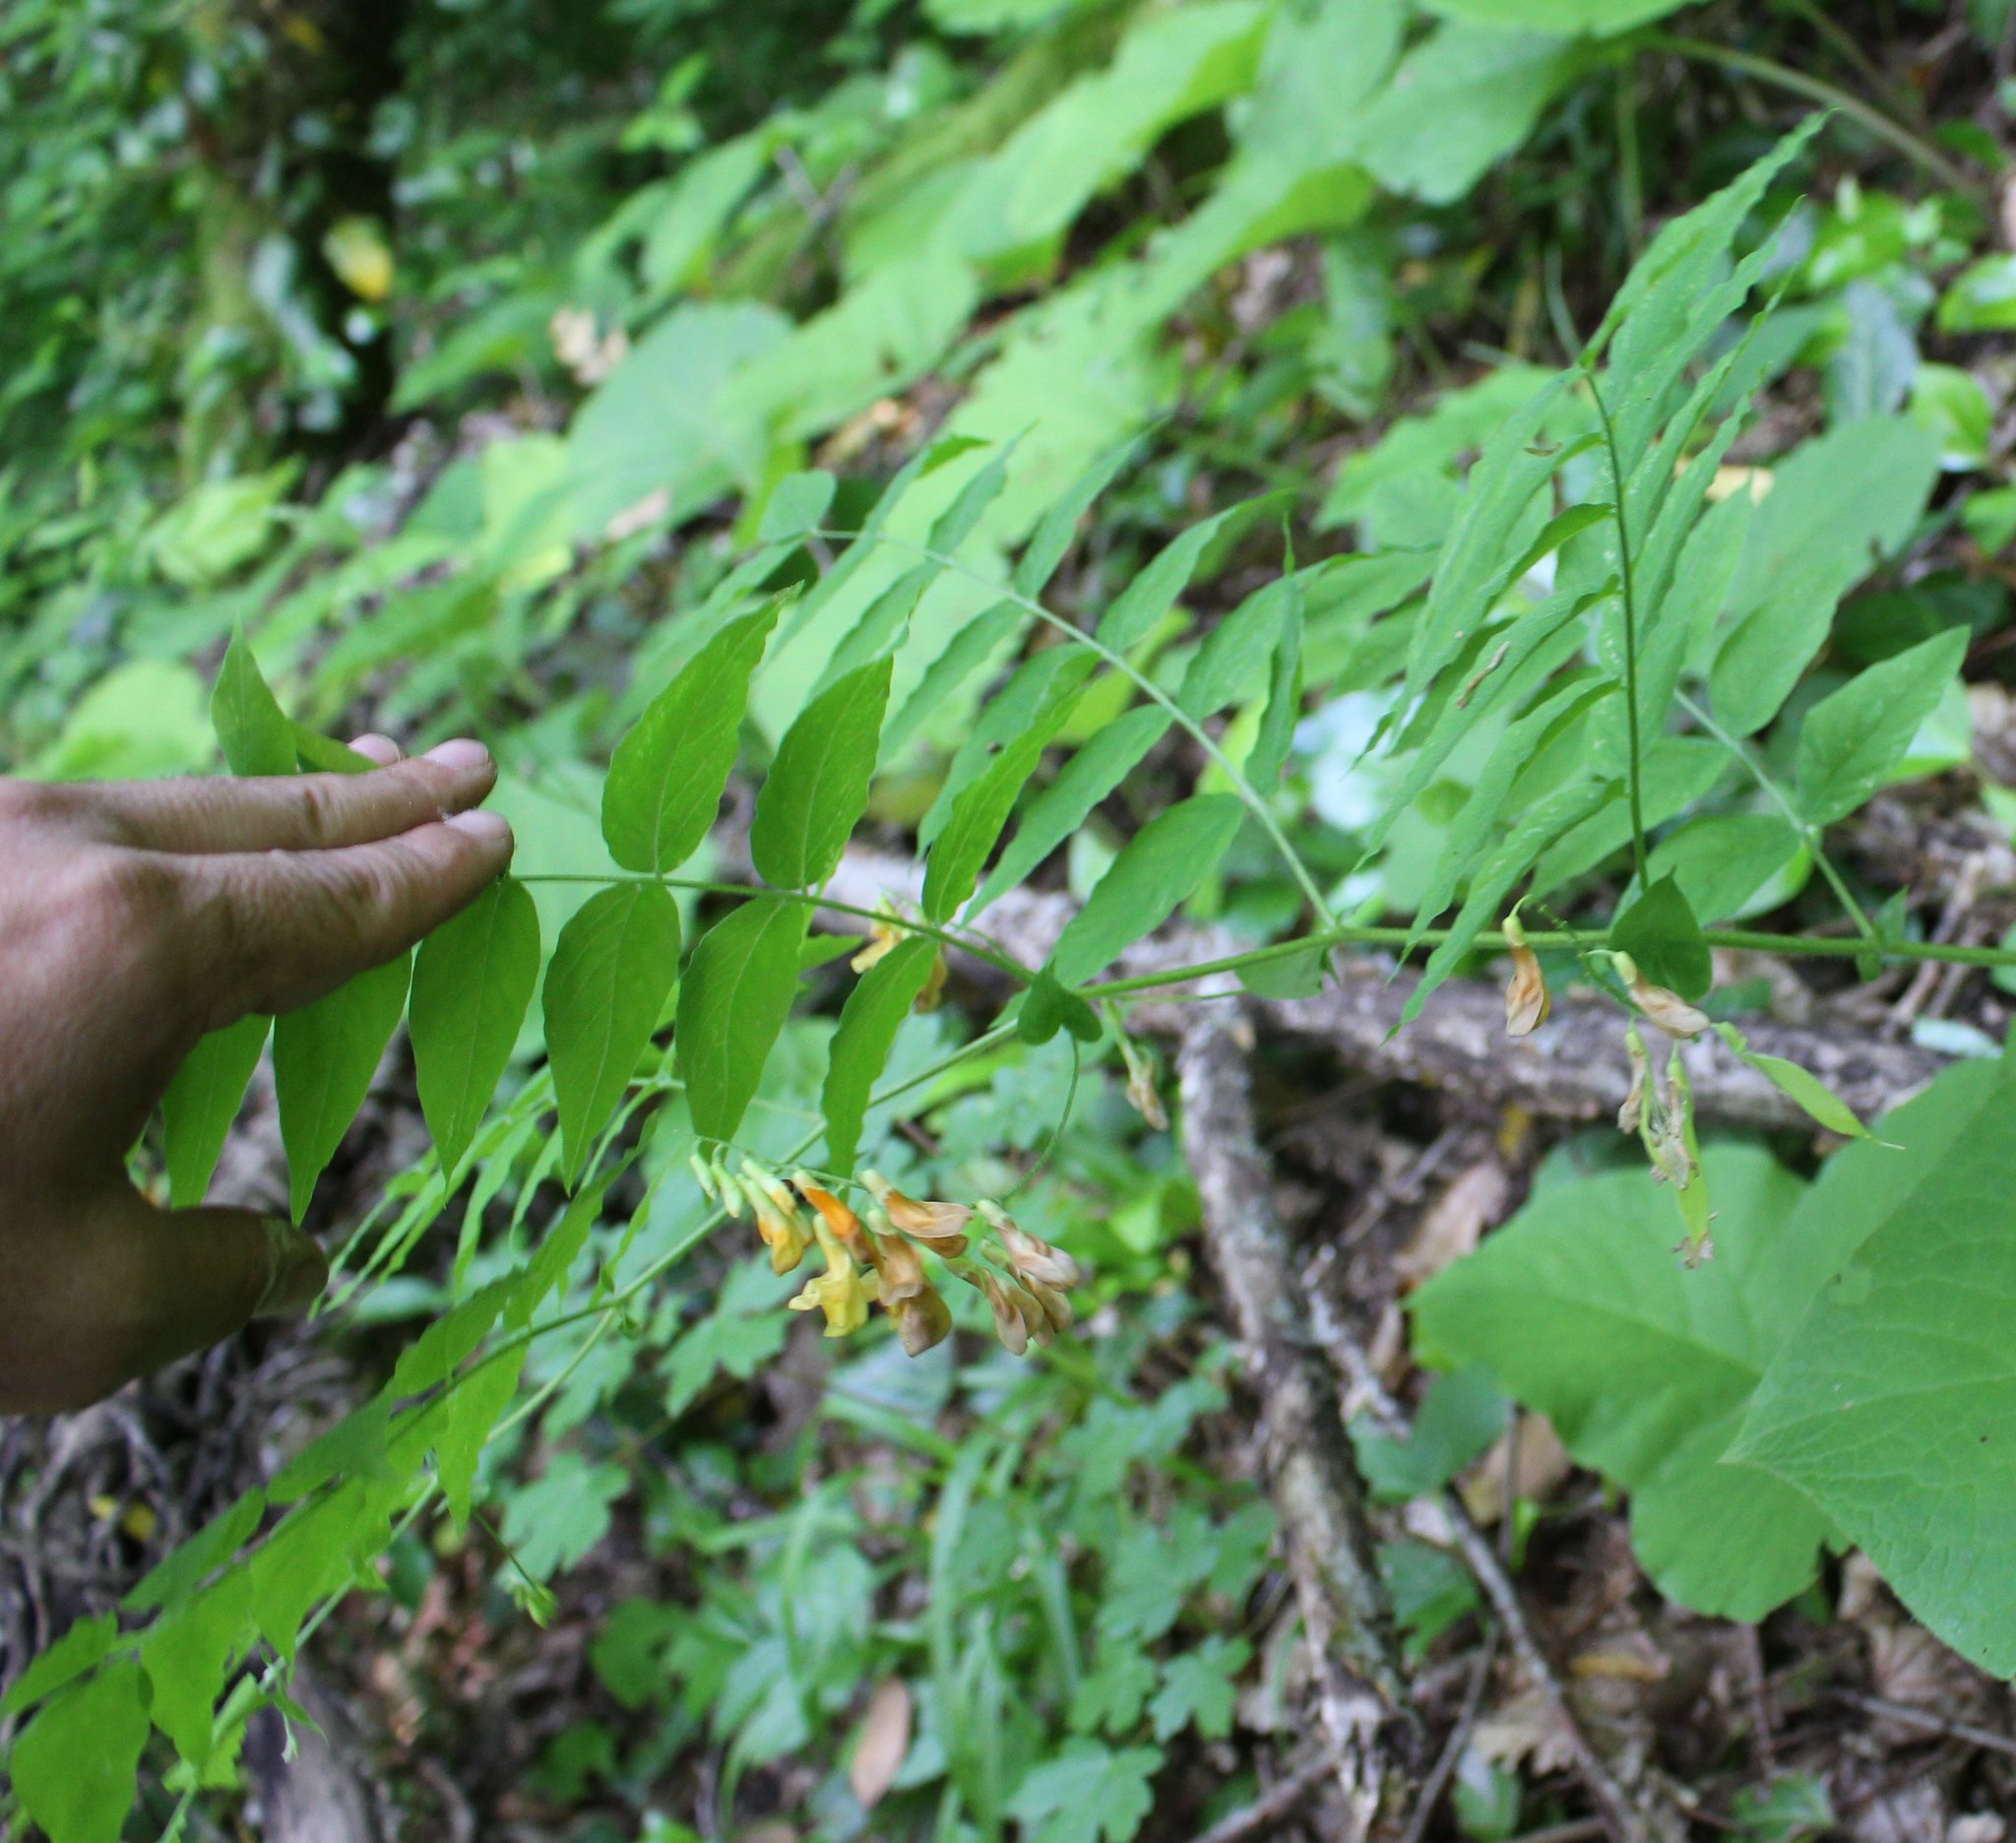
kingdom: Plantae
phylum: Tracheophyta
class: Magnoliopsida
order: Fabales
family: Fabaceae
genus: Vicia
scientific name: Vicia crocea
